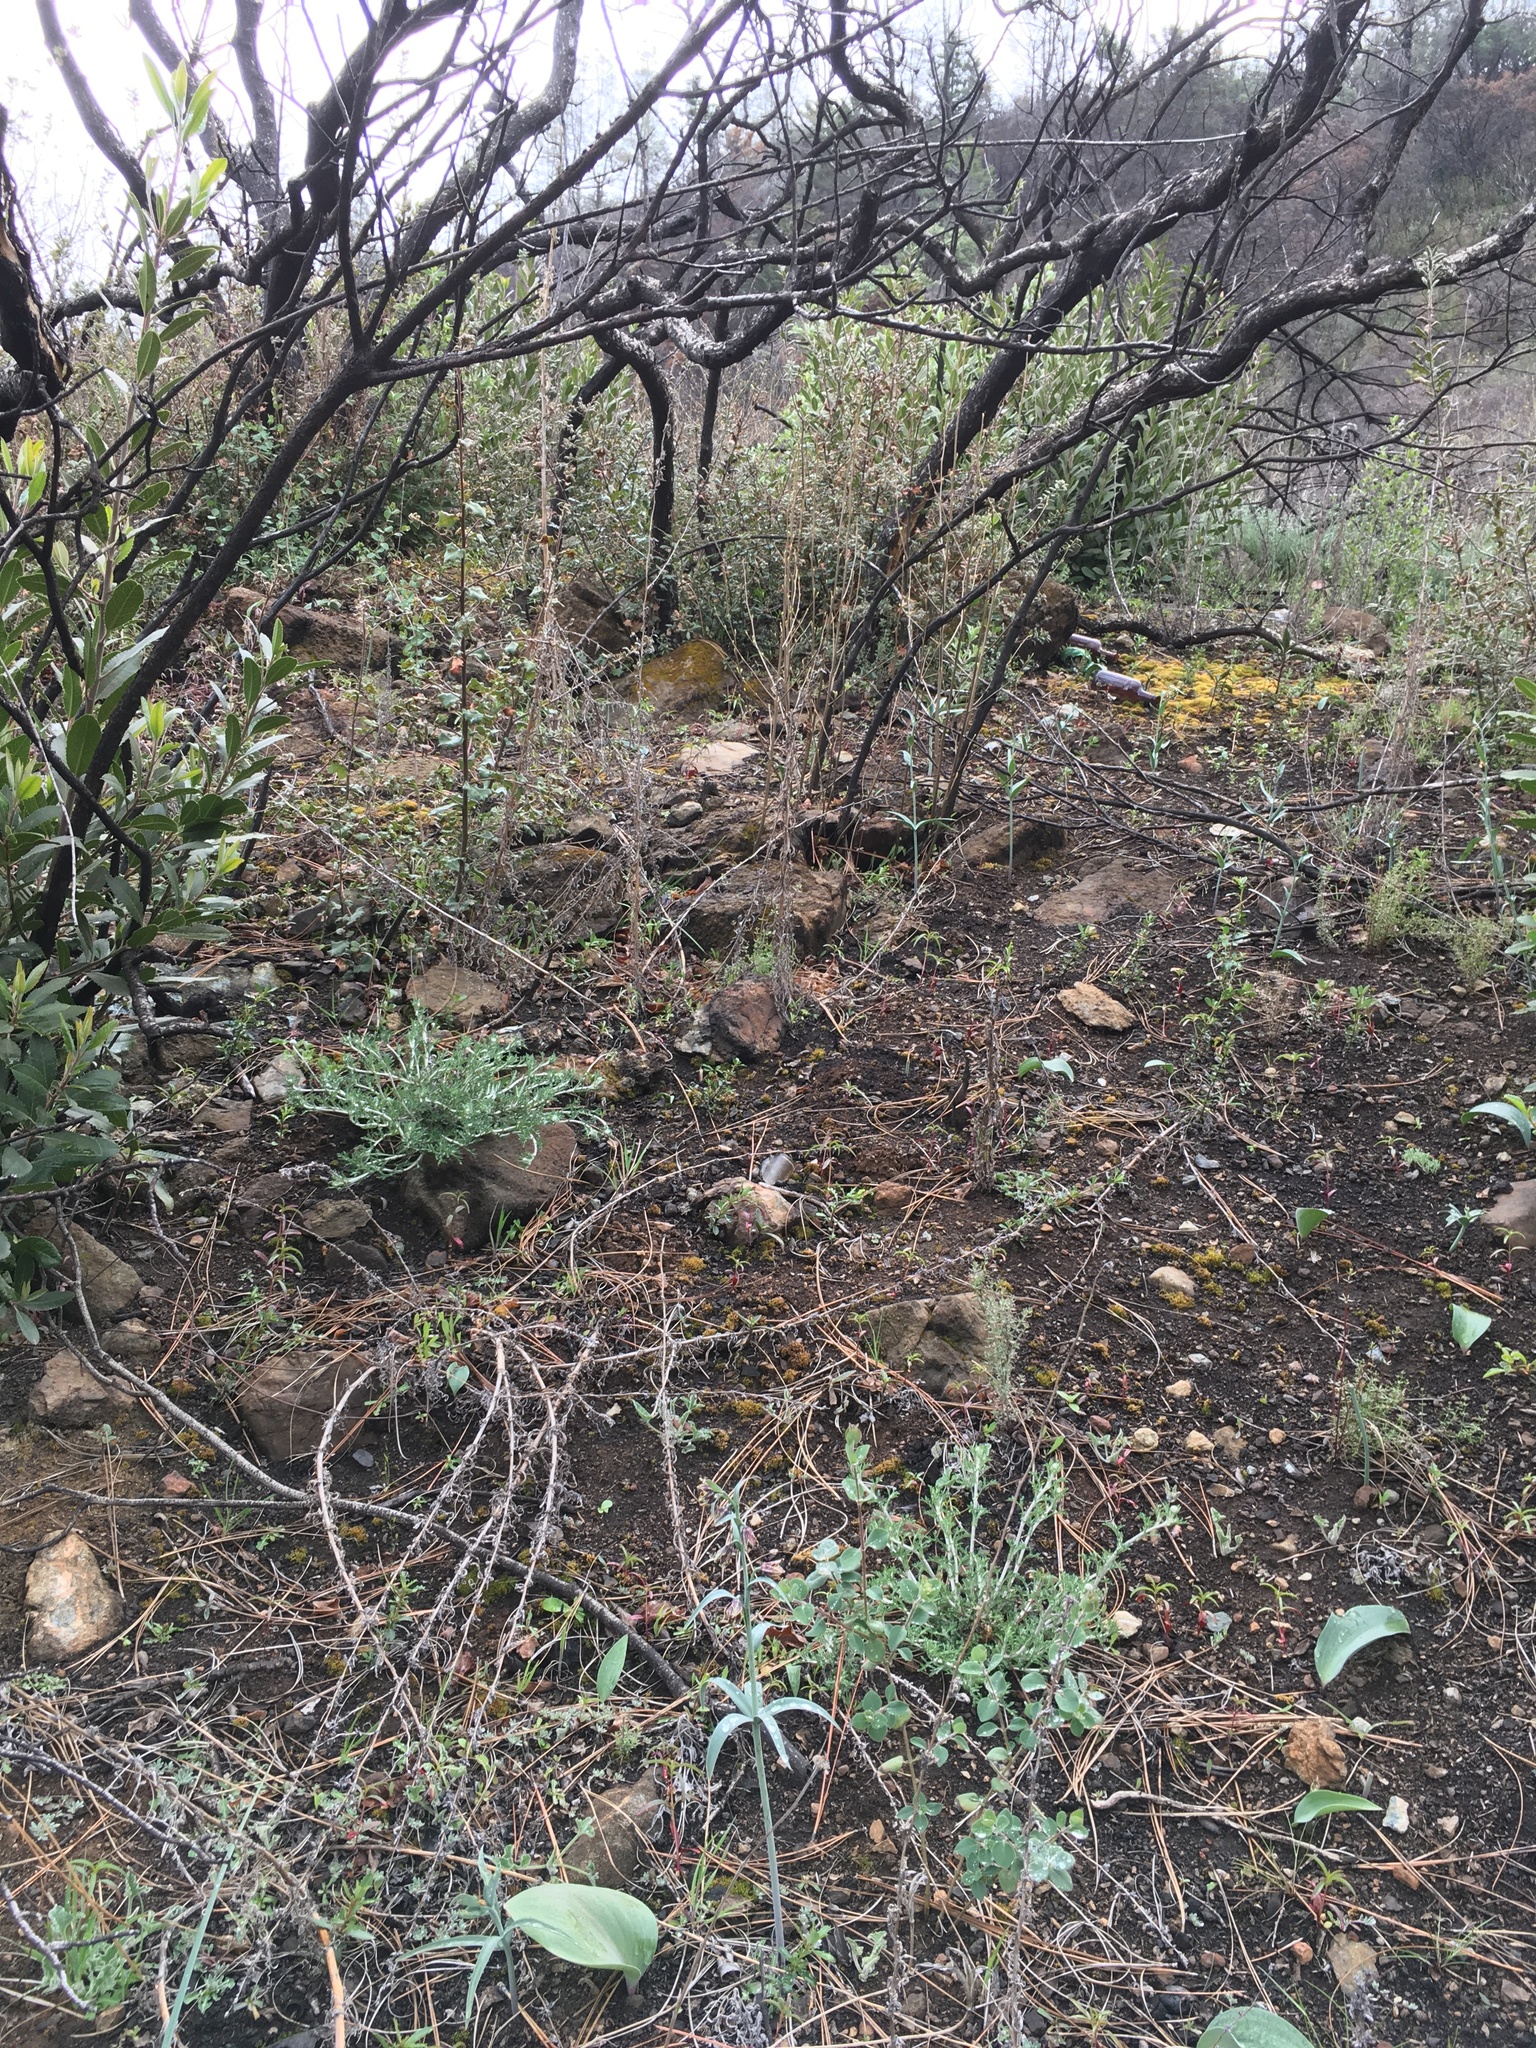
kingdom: Plantae
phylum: Tracheophyta
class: Liliopsida
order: Liliales
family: Liliaceae
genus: Fritillaria
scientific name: Fritillaria affinis
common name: Ojai fritillary
